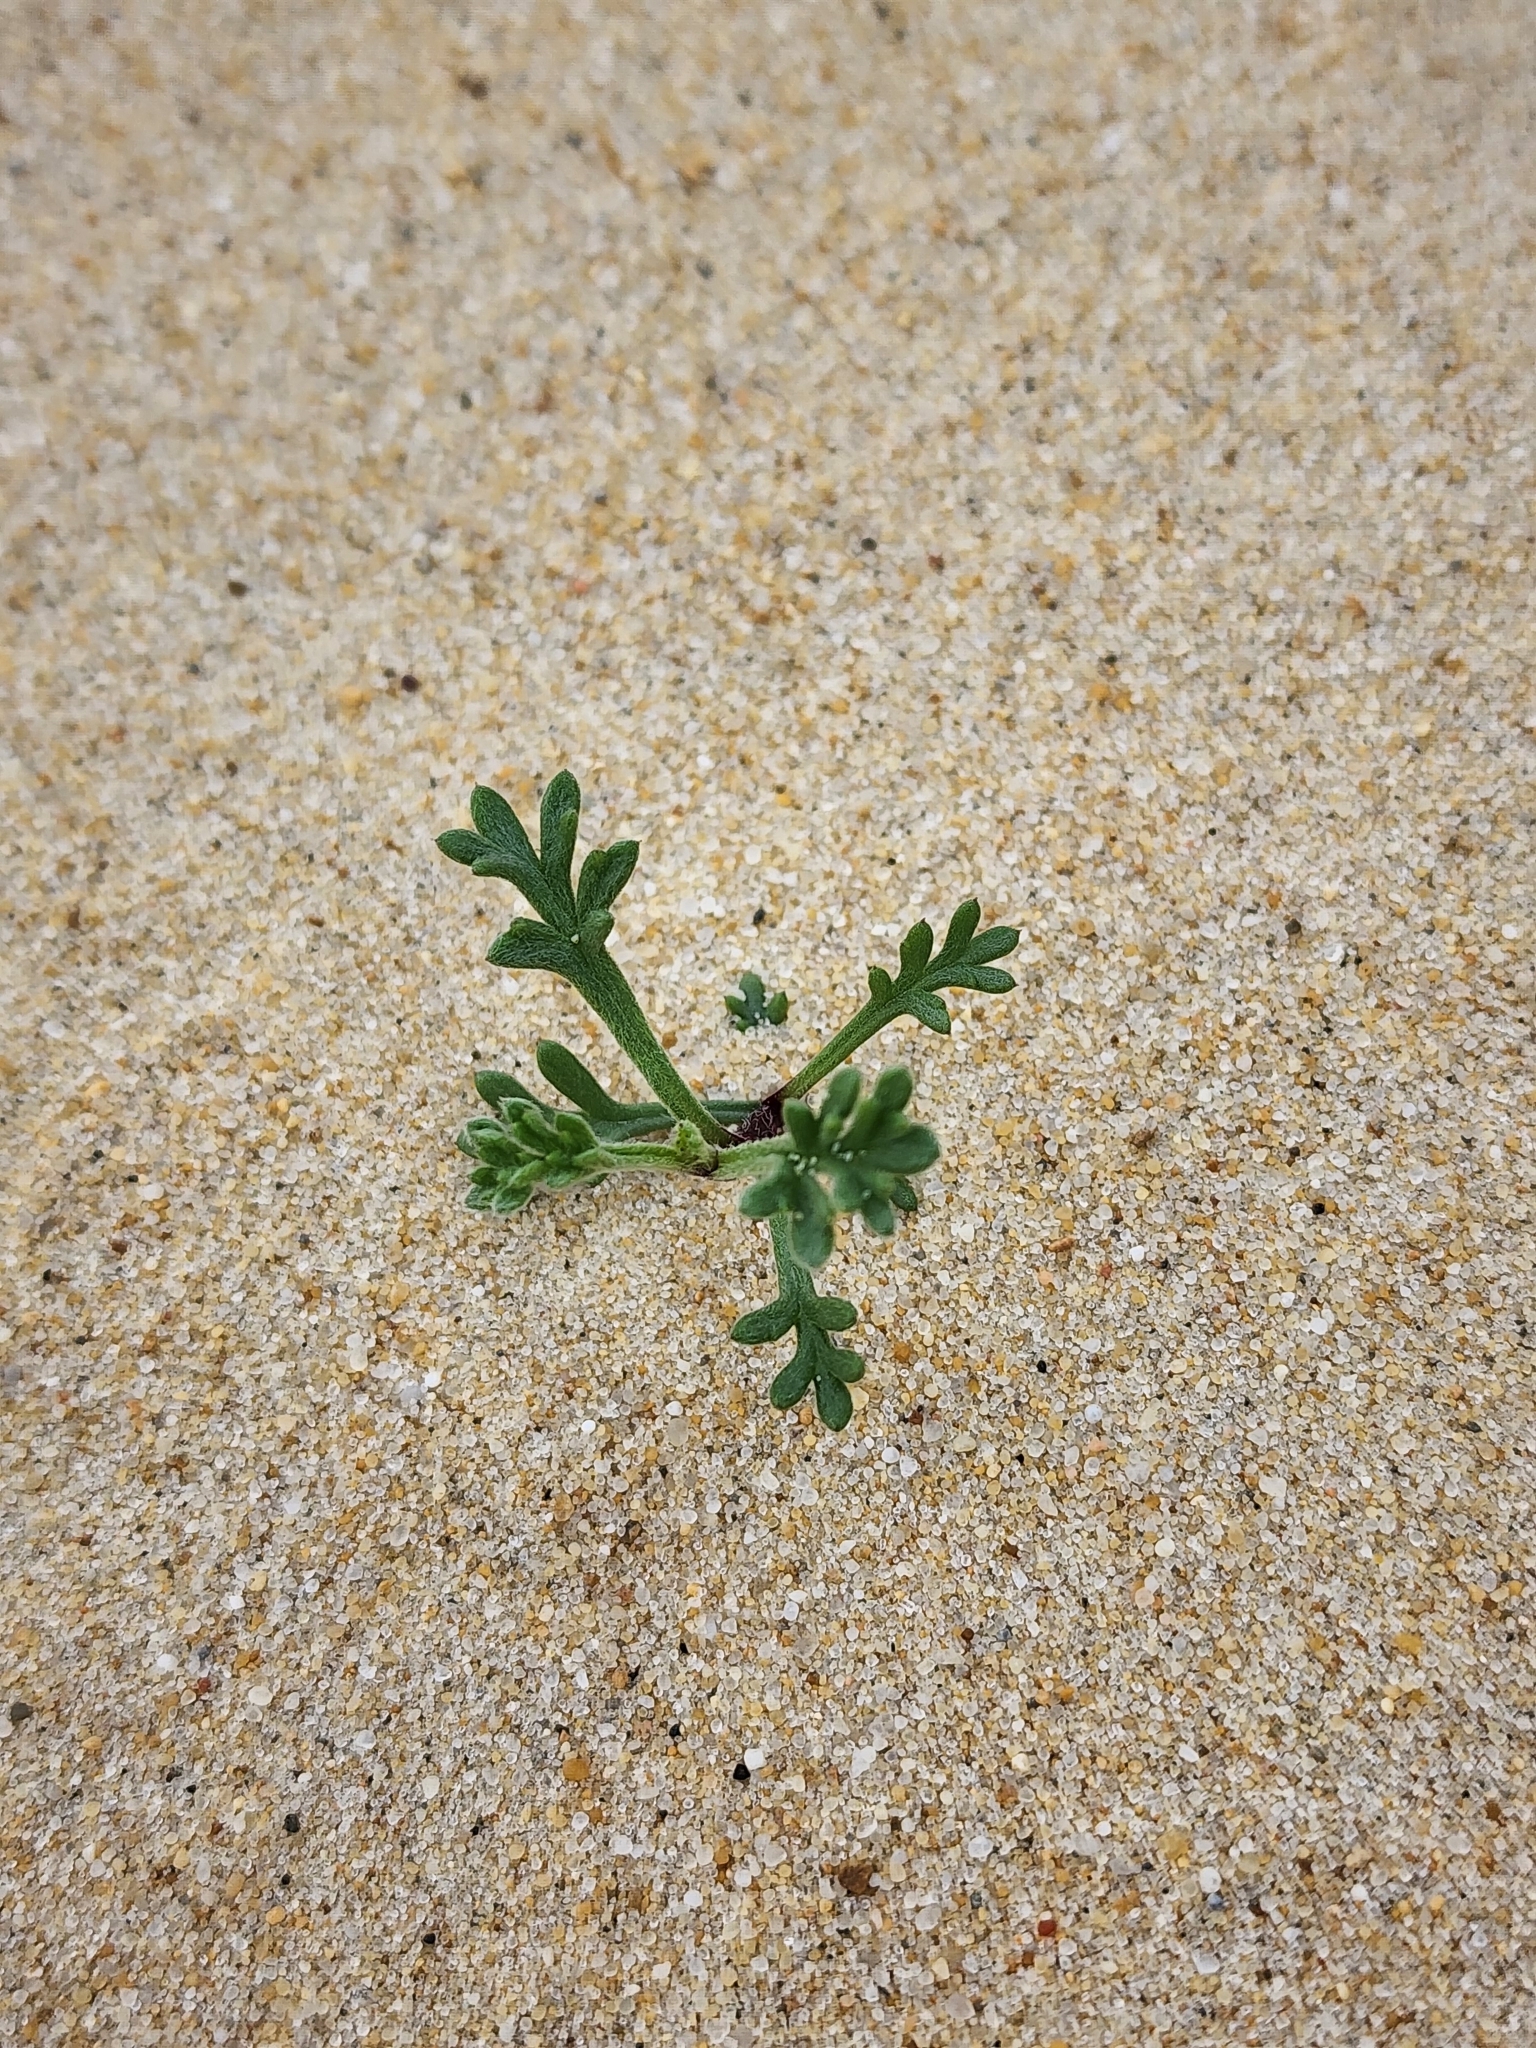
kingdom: Plantae
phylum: Tracheophyta
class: Magnoliopsida
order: Asterales
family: Asteraceae
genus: Artemisia
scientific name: Artemisia crithmifolia
